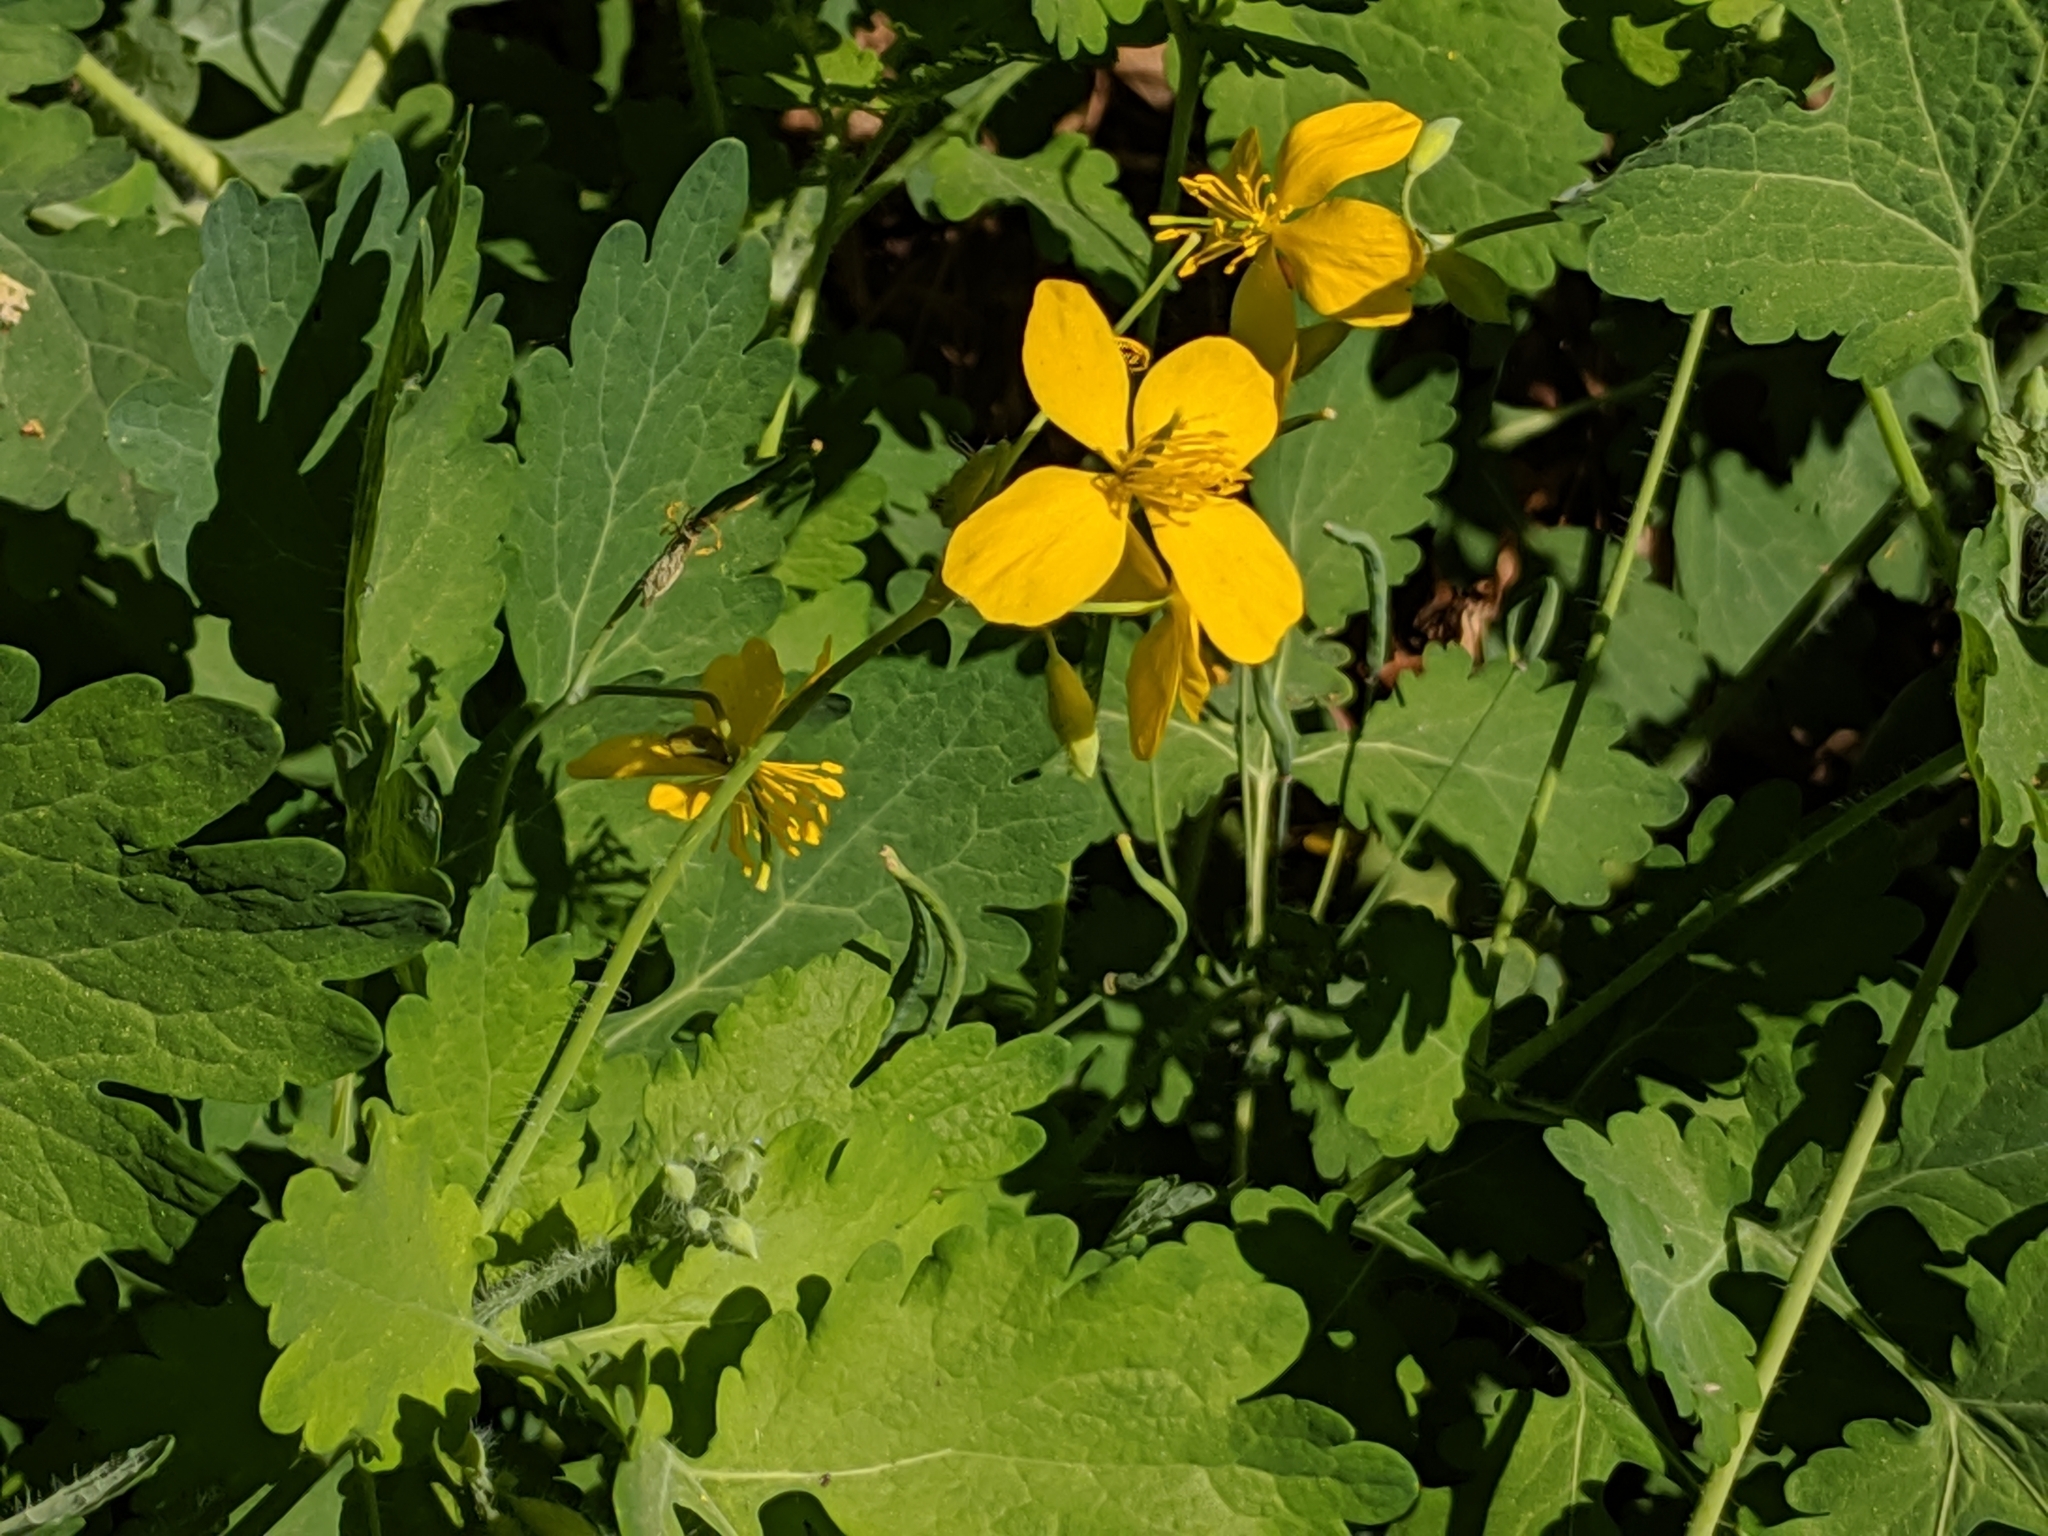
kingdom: Plantae
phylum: Tracheophyta
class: Magnoliopsida
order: Ranunculales
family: Papaveraceae
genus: Chelidonium
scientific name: Chelidonium majus
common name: Greater celandine
